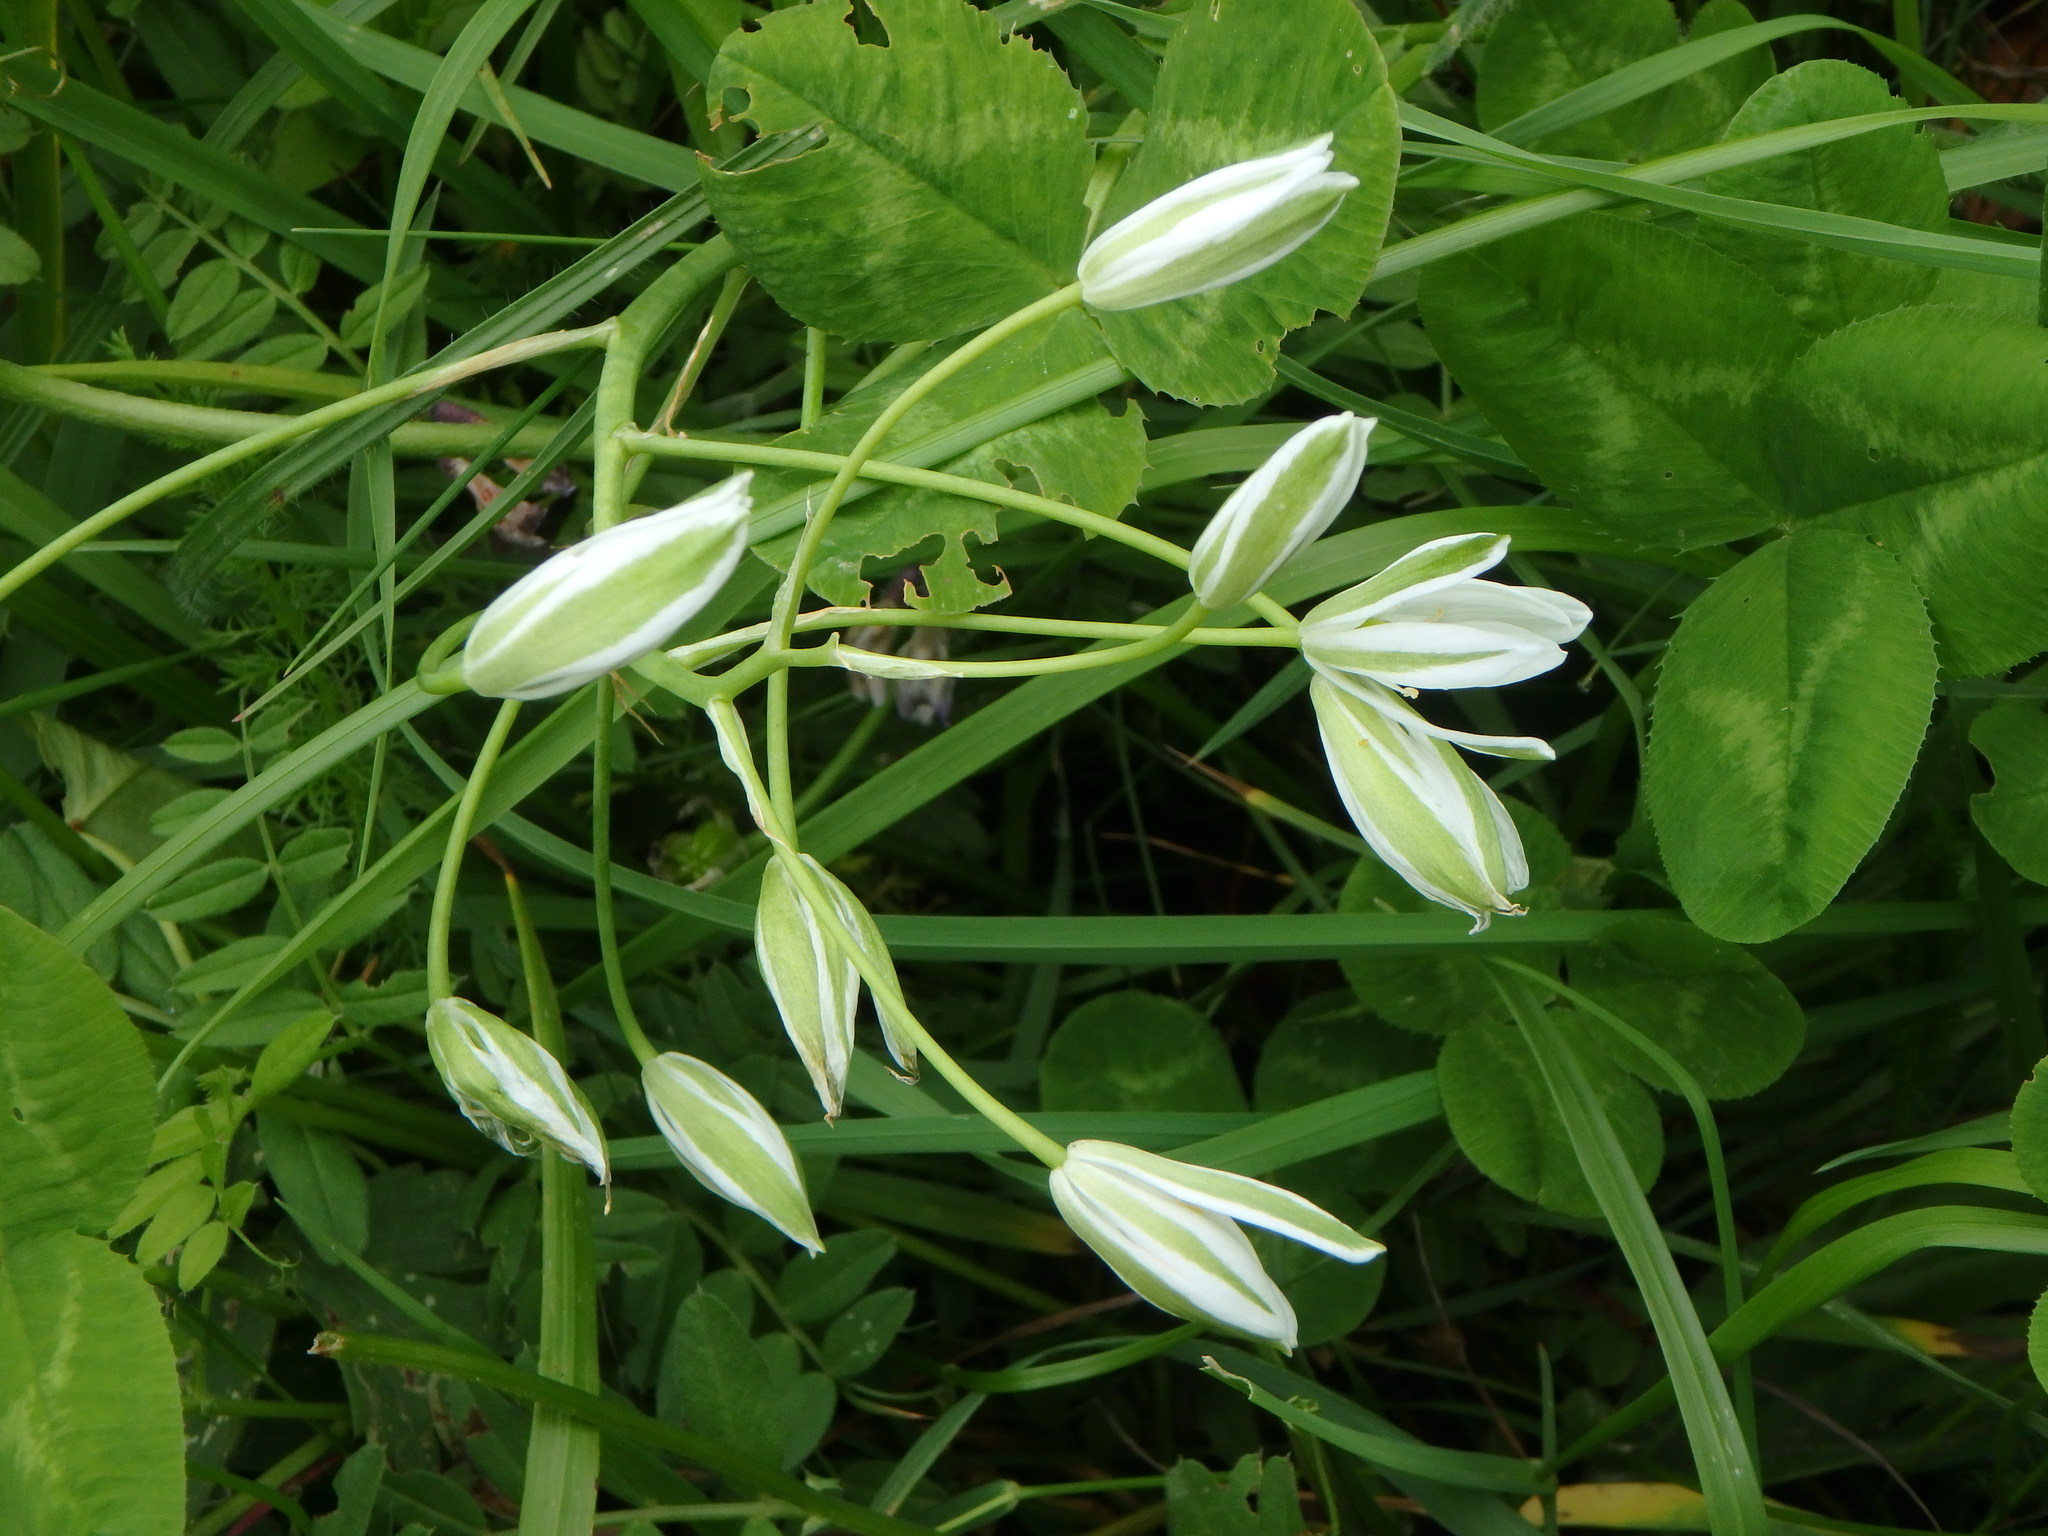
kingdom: Plantae
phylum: Tracheophyta
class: Liliopsida
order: Asparagales
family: Asparagaceae
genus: Ornithogalum
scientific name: Ornithogalum umbellatum
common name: Garden star-of-bethlehem
